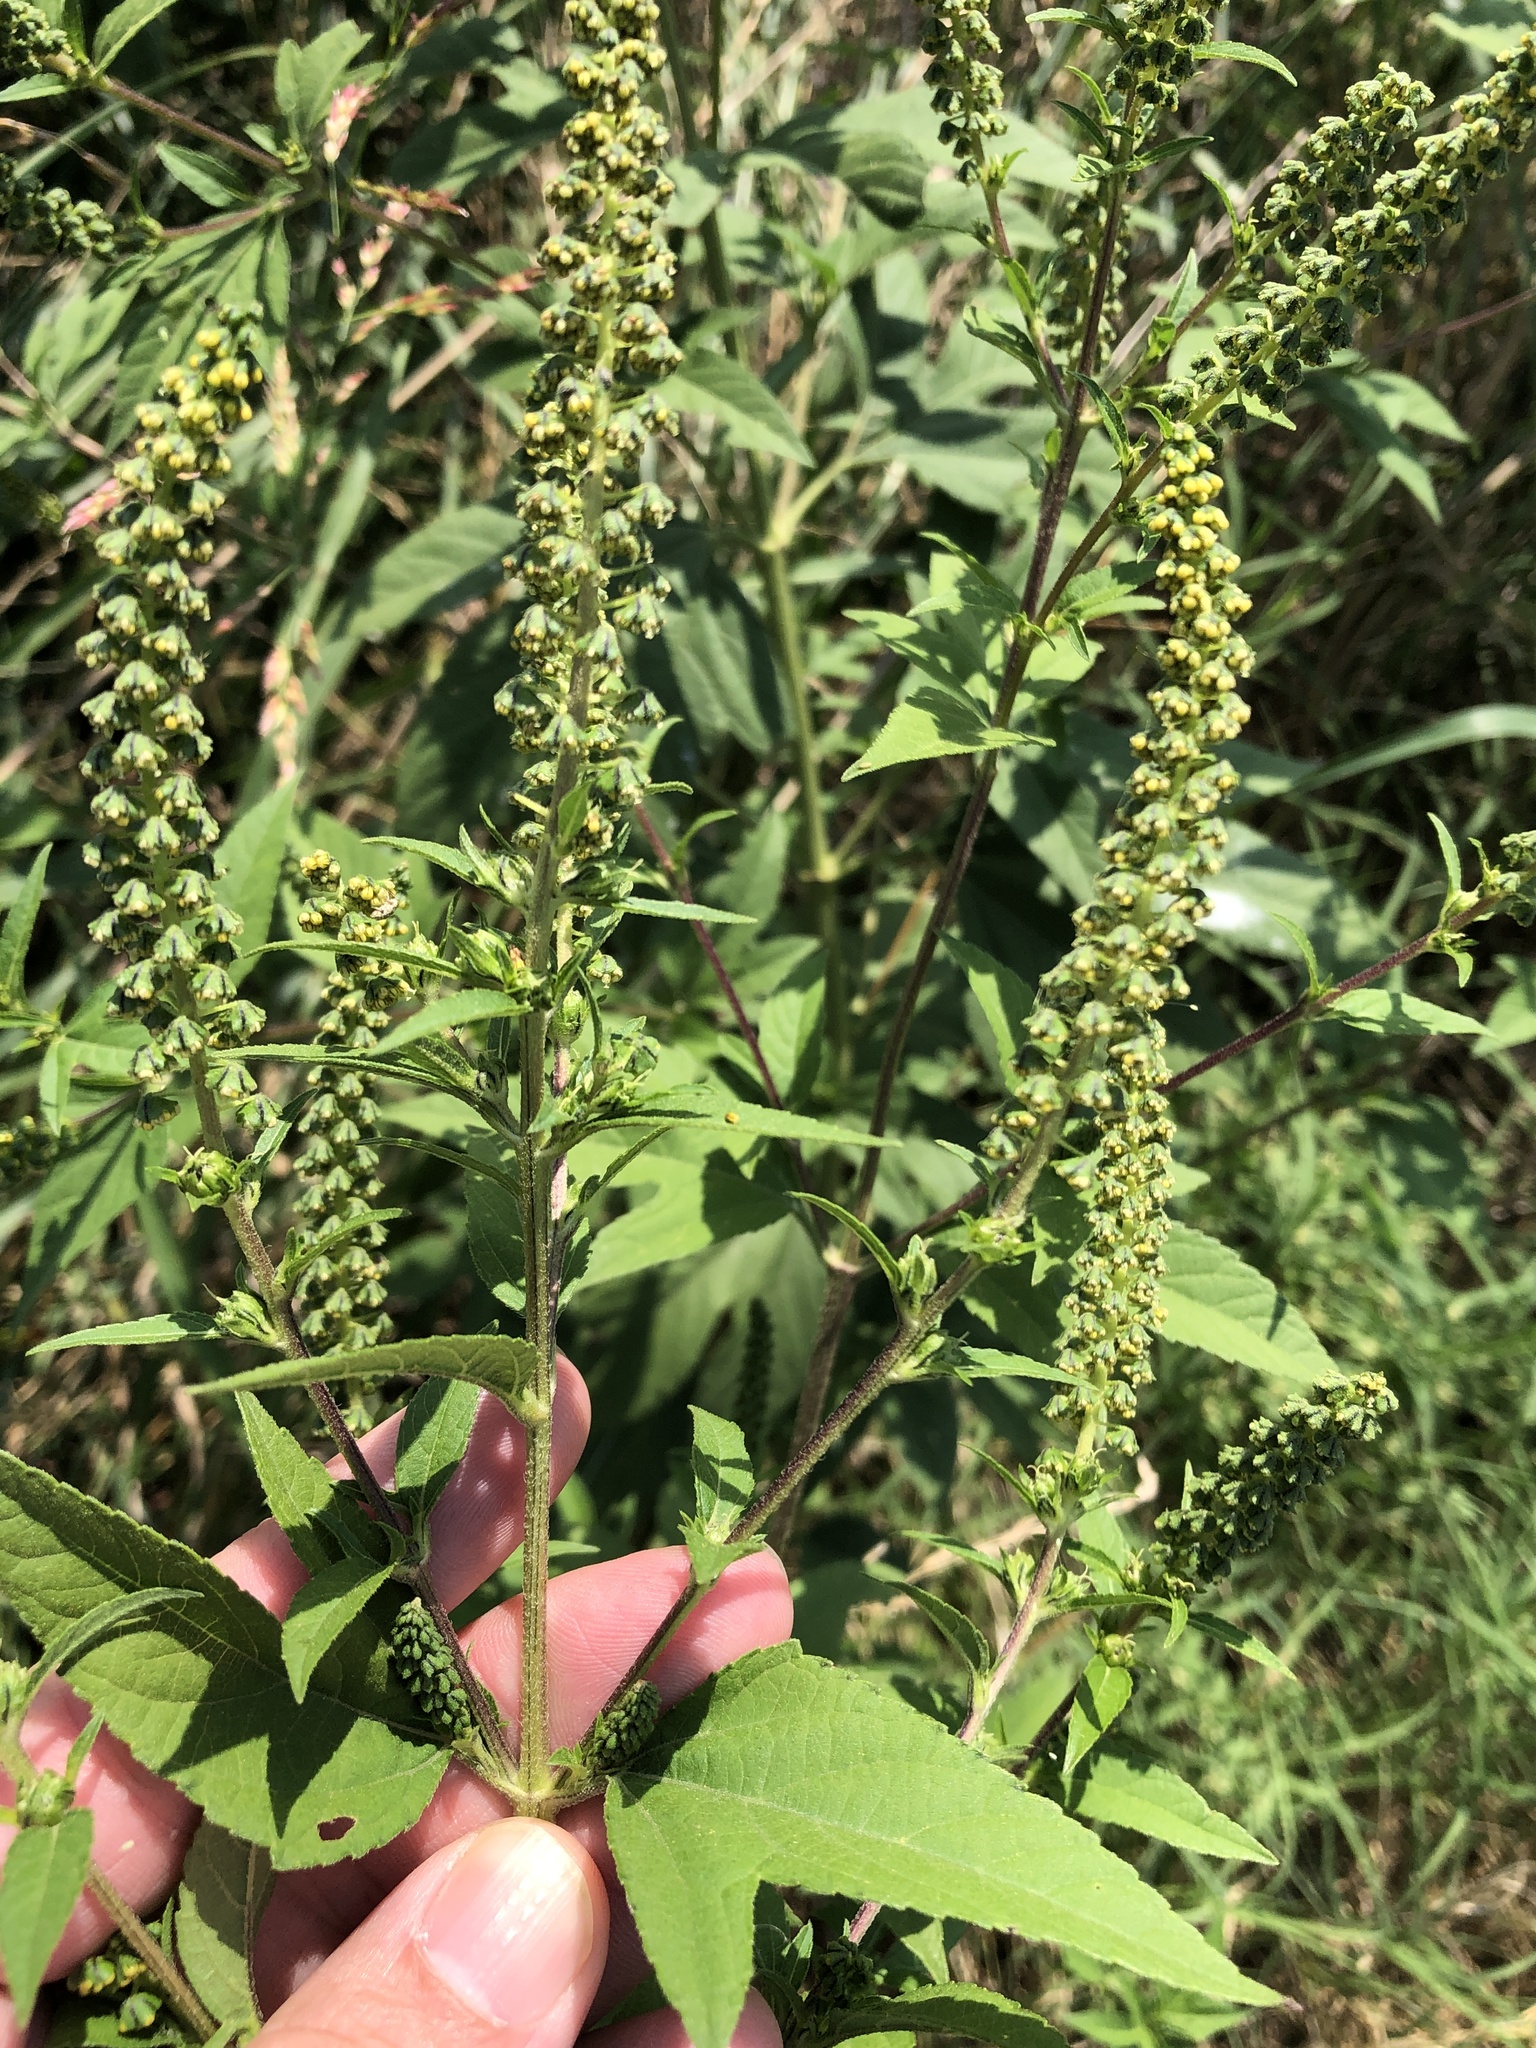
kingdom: Plantae
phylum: Tracheophyta
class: Magnoliopsida
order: Asterales
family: Asteraceae
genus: Ambrosia
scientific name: Ambrosia trifida
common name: Giant ragweed
